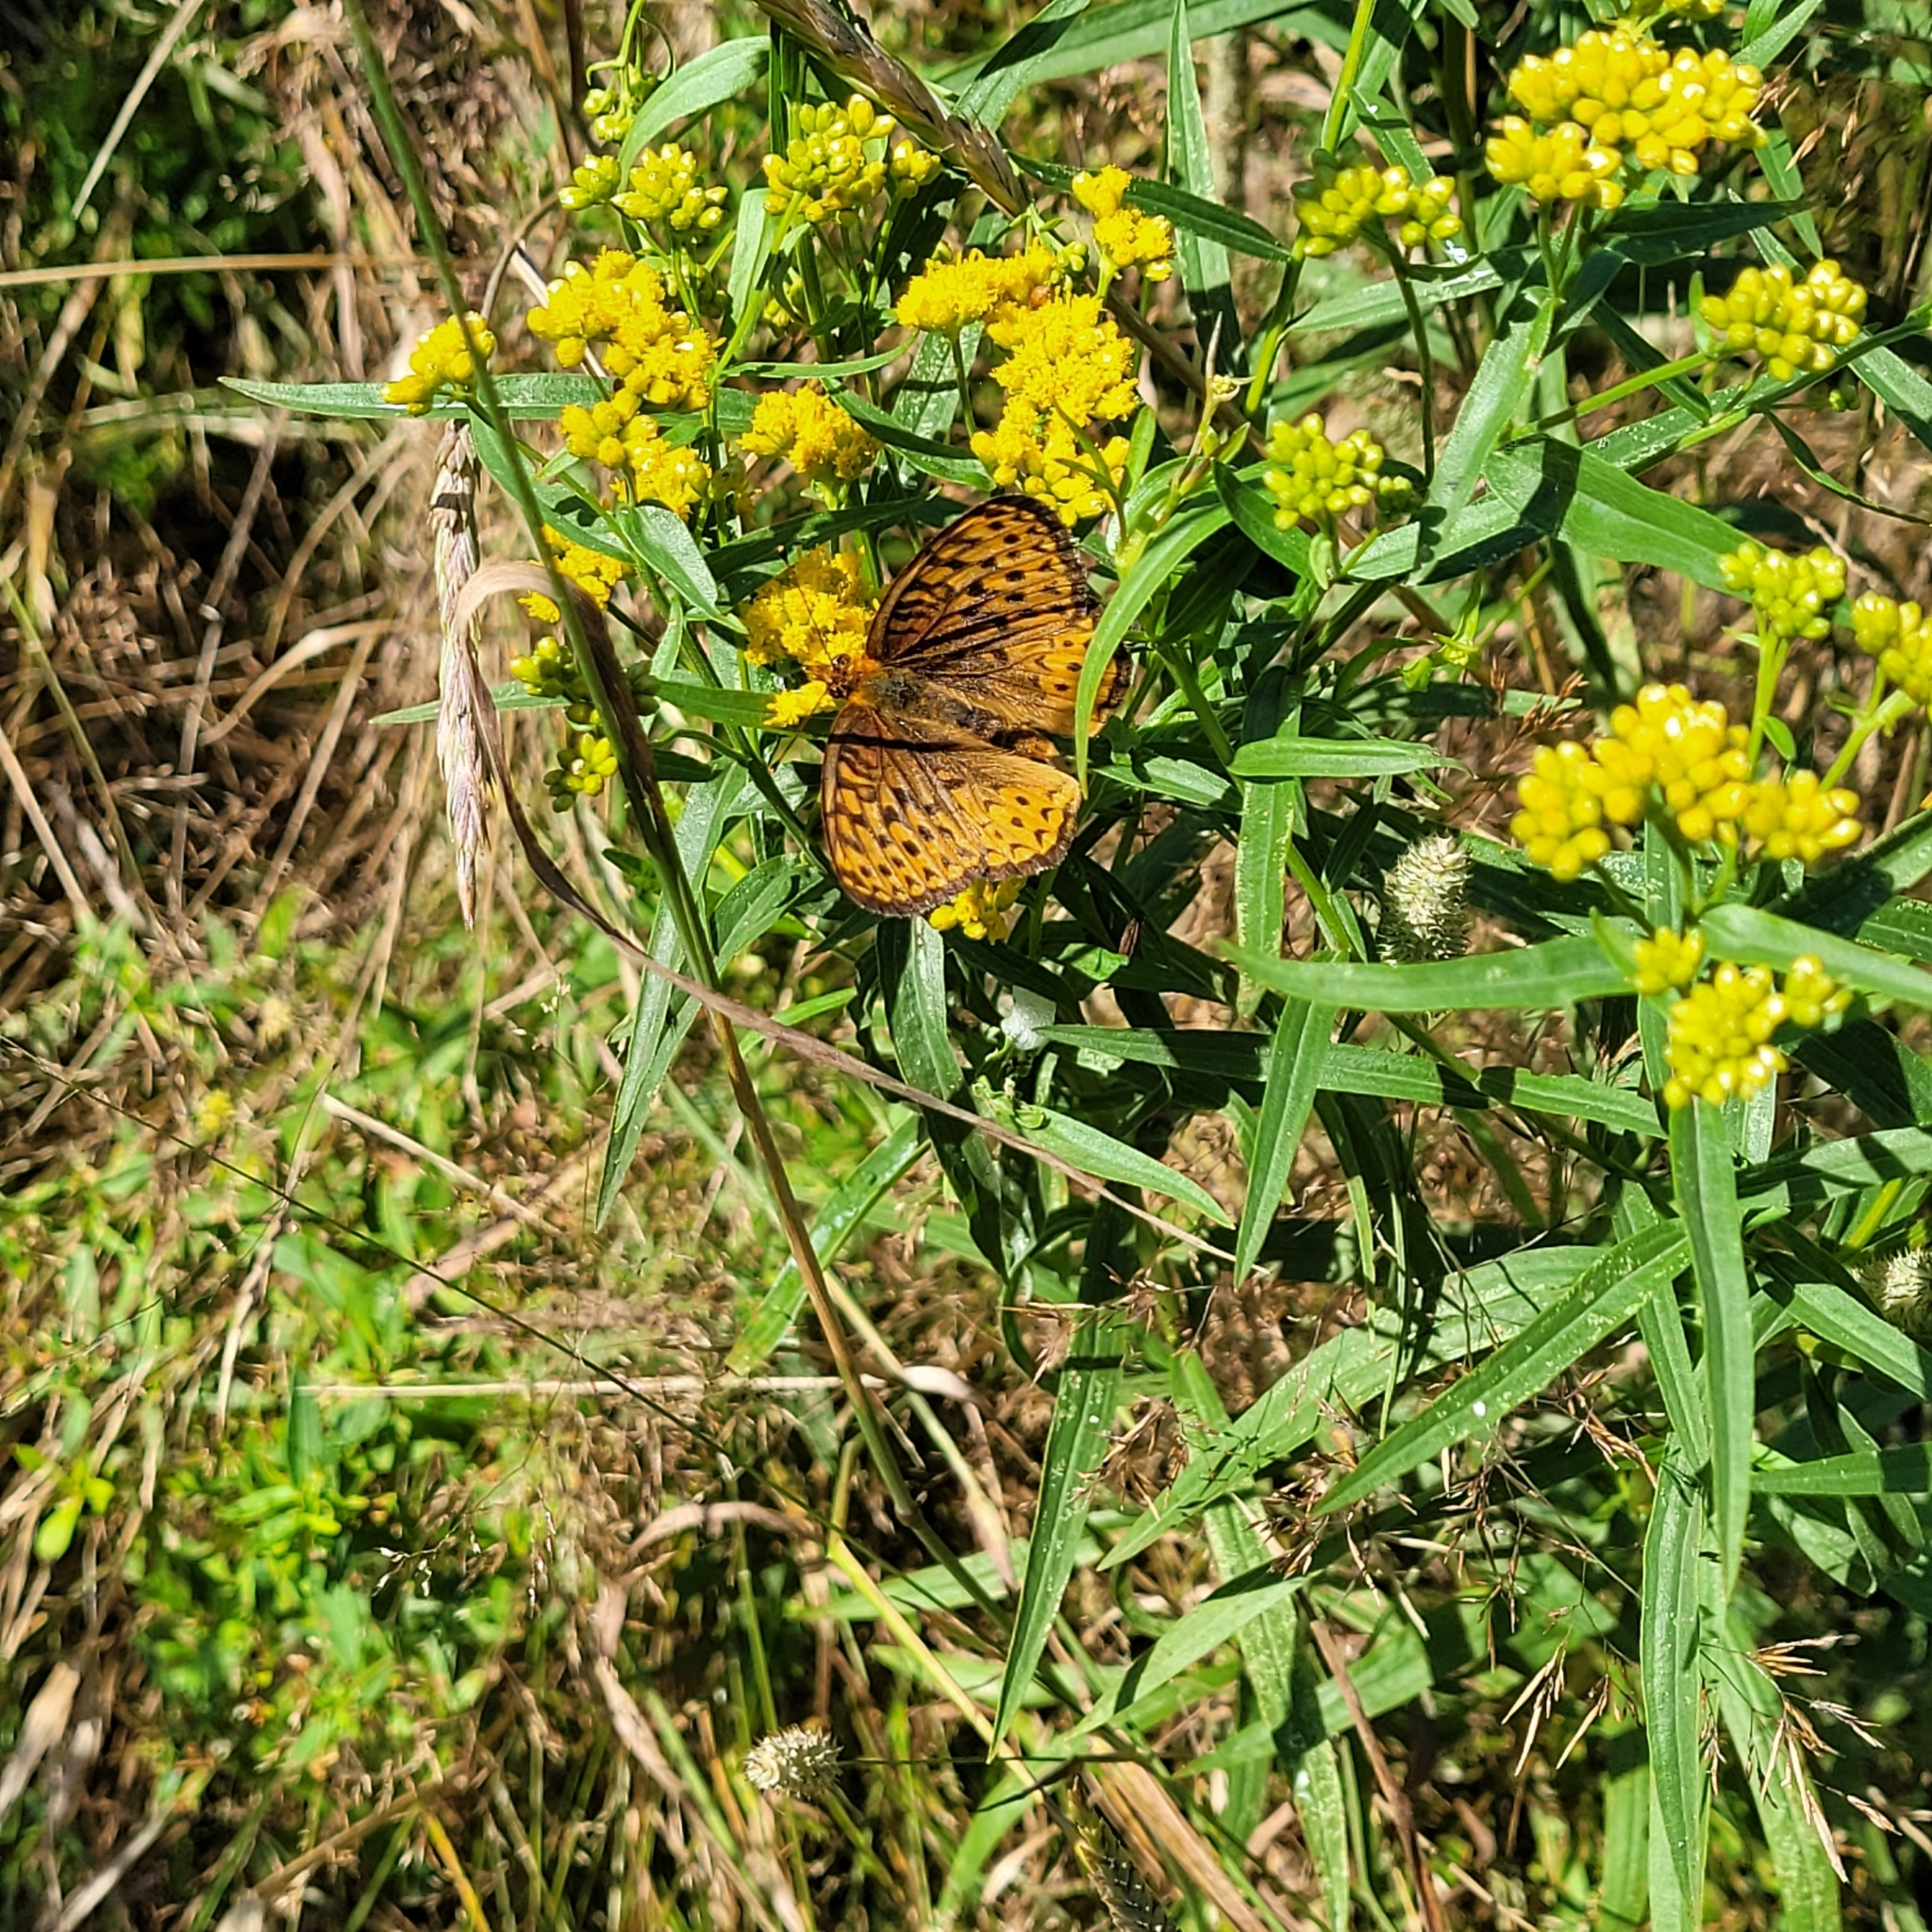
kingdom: Animalia
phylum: Arthropoda
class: Insecta
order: Lepidoptera
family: Nymphalidae
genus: Speyeria
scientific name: Speyeria atlantis
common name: Atlantis fritillary
